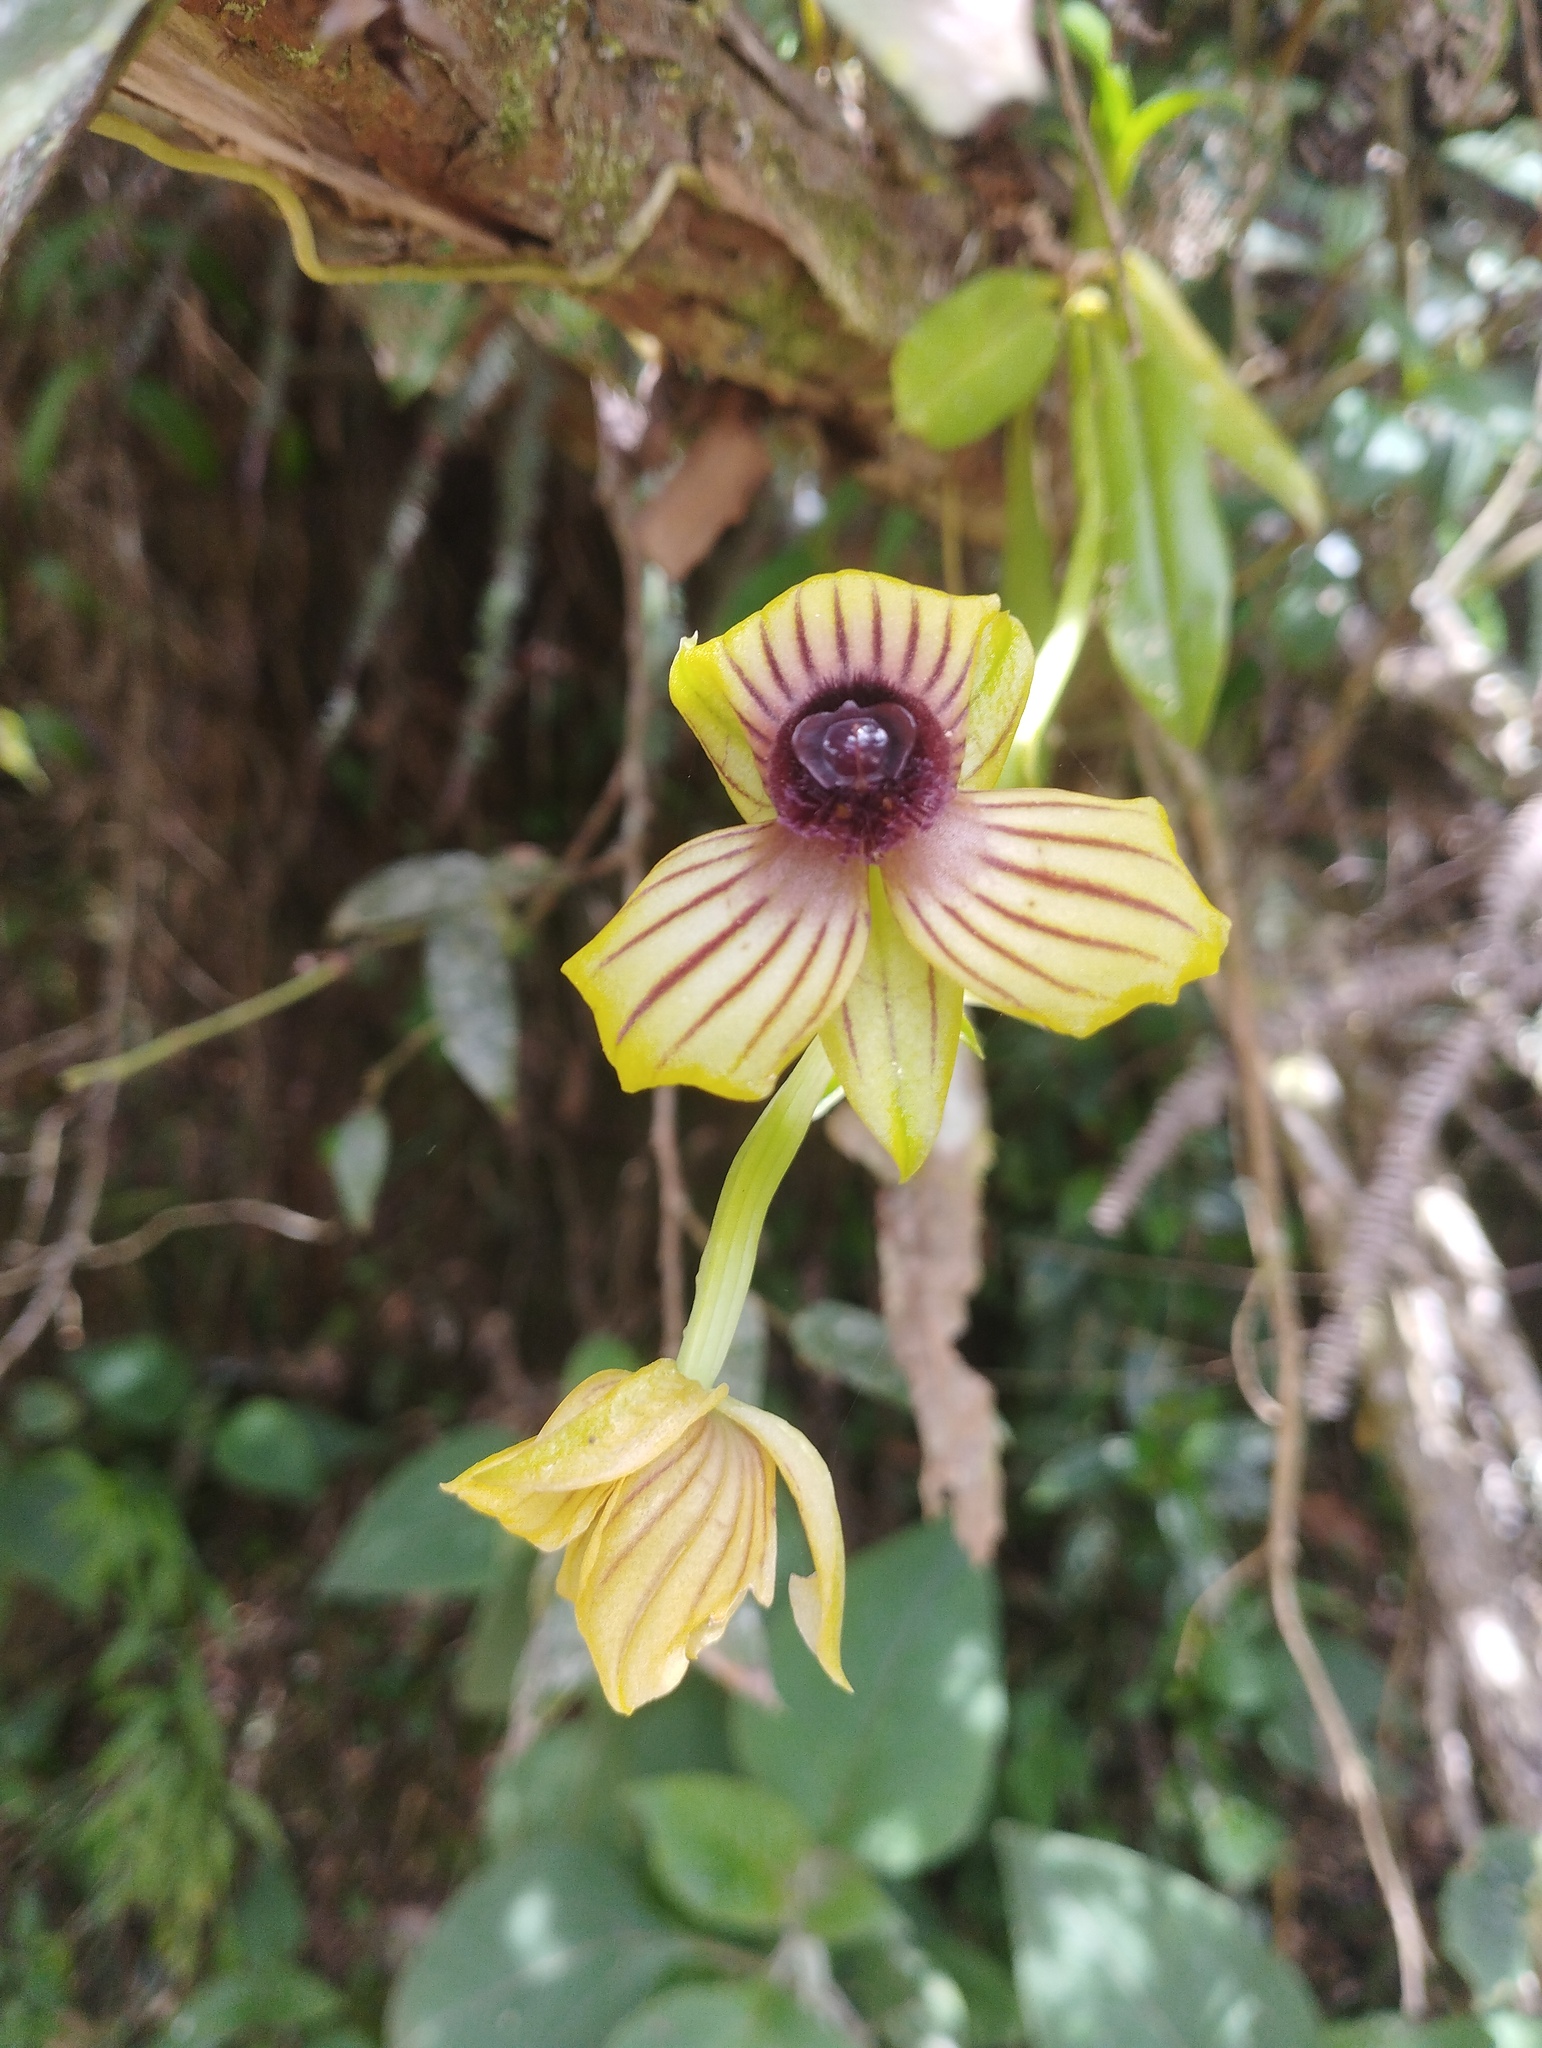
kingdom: Plantae
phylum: Tracheophyta
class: Liliopsida
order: Asparagales
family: Orchidaceae
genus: Telipogon
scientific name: Telipogon hemimelas
